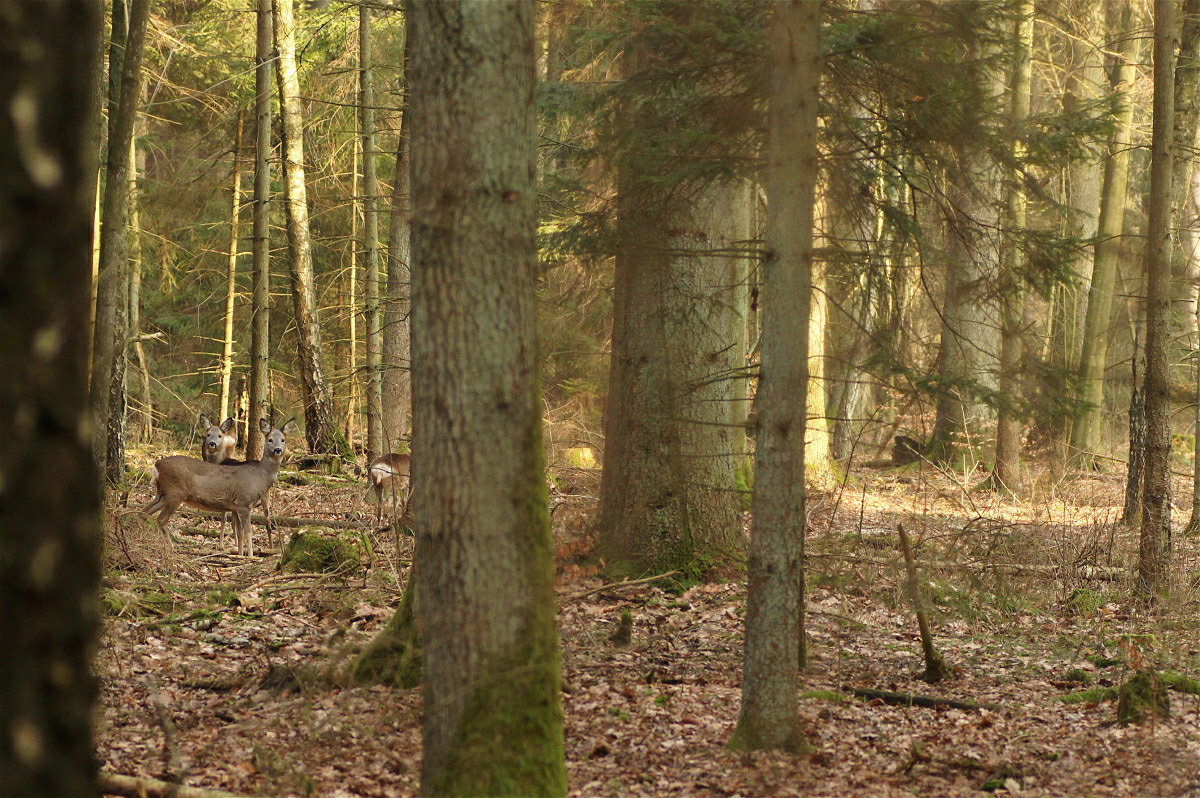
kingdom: Animalia
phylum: Chordata
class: Mammalia
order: Artiodactyla
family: Cervidae
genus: Capreolus
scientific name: Capreolus capreolus
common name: Western roe deer
